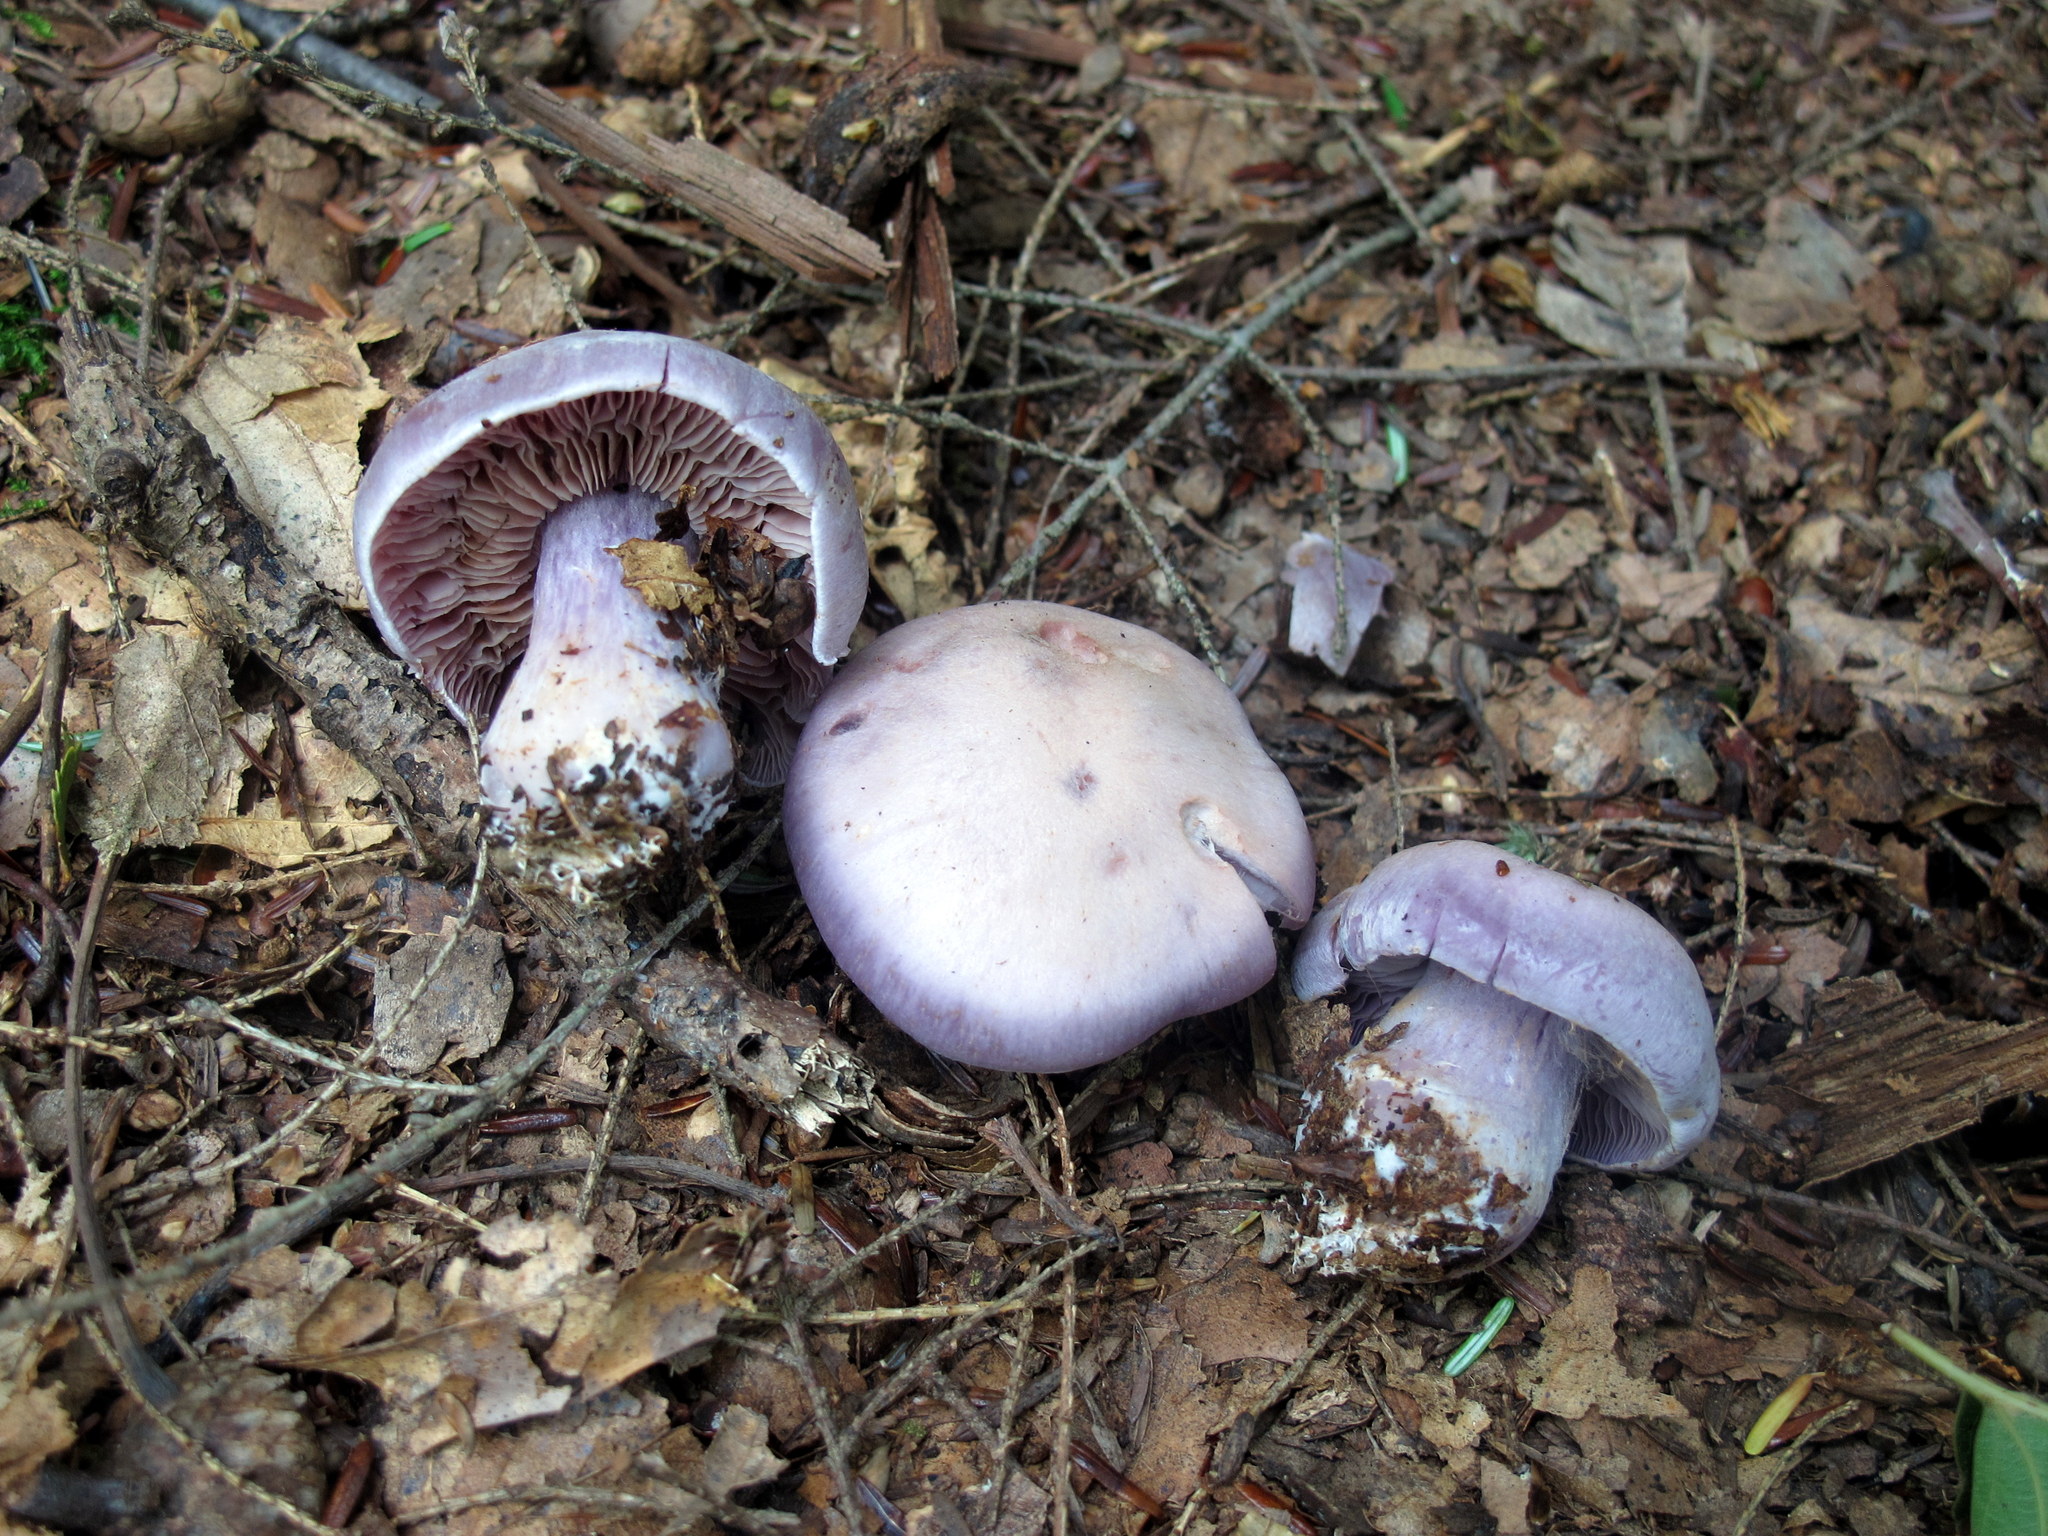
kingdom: Fungi
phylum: Basidiomycota
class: Agaricomycetes
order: Agaricales
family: Cortinariaceae
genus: Cortinarius
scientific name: Cortinarius argenteopileatus
